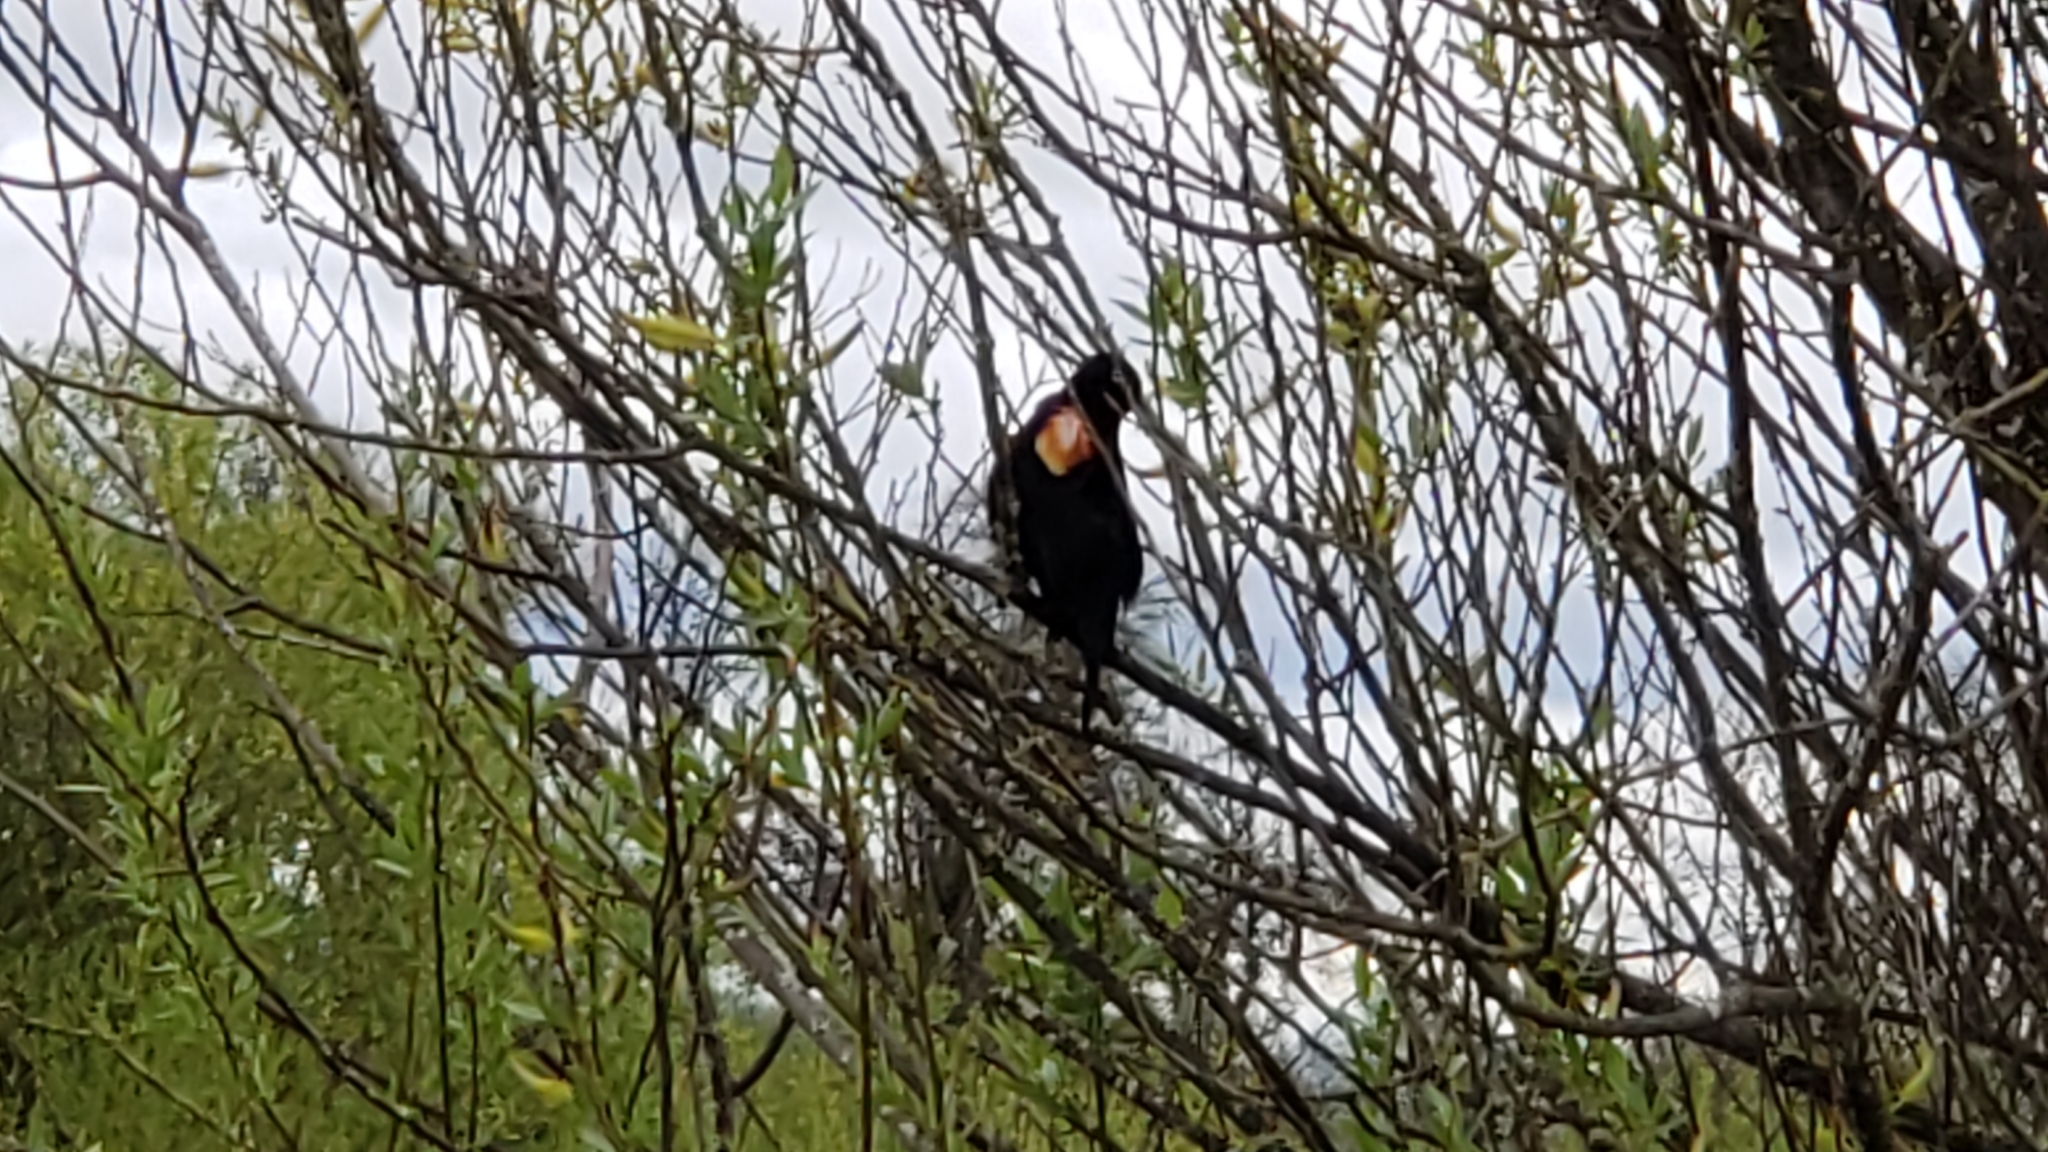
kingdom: Animalia
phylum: Chordata
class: Aves
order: Passeriformes
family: Icteridae
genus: Agelaius
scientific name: Agelaius phoeniceus
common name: Red-winged blackbird
